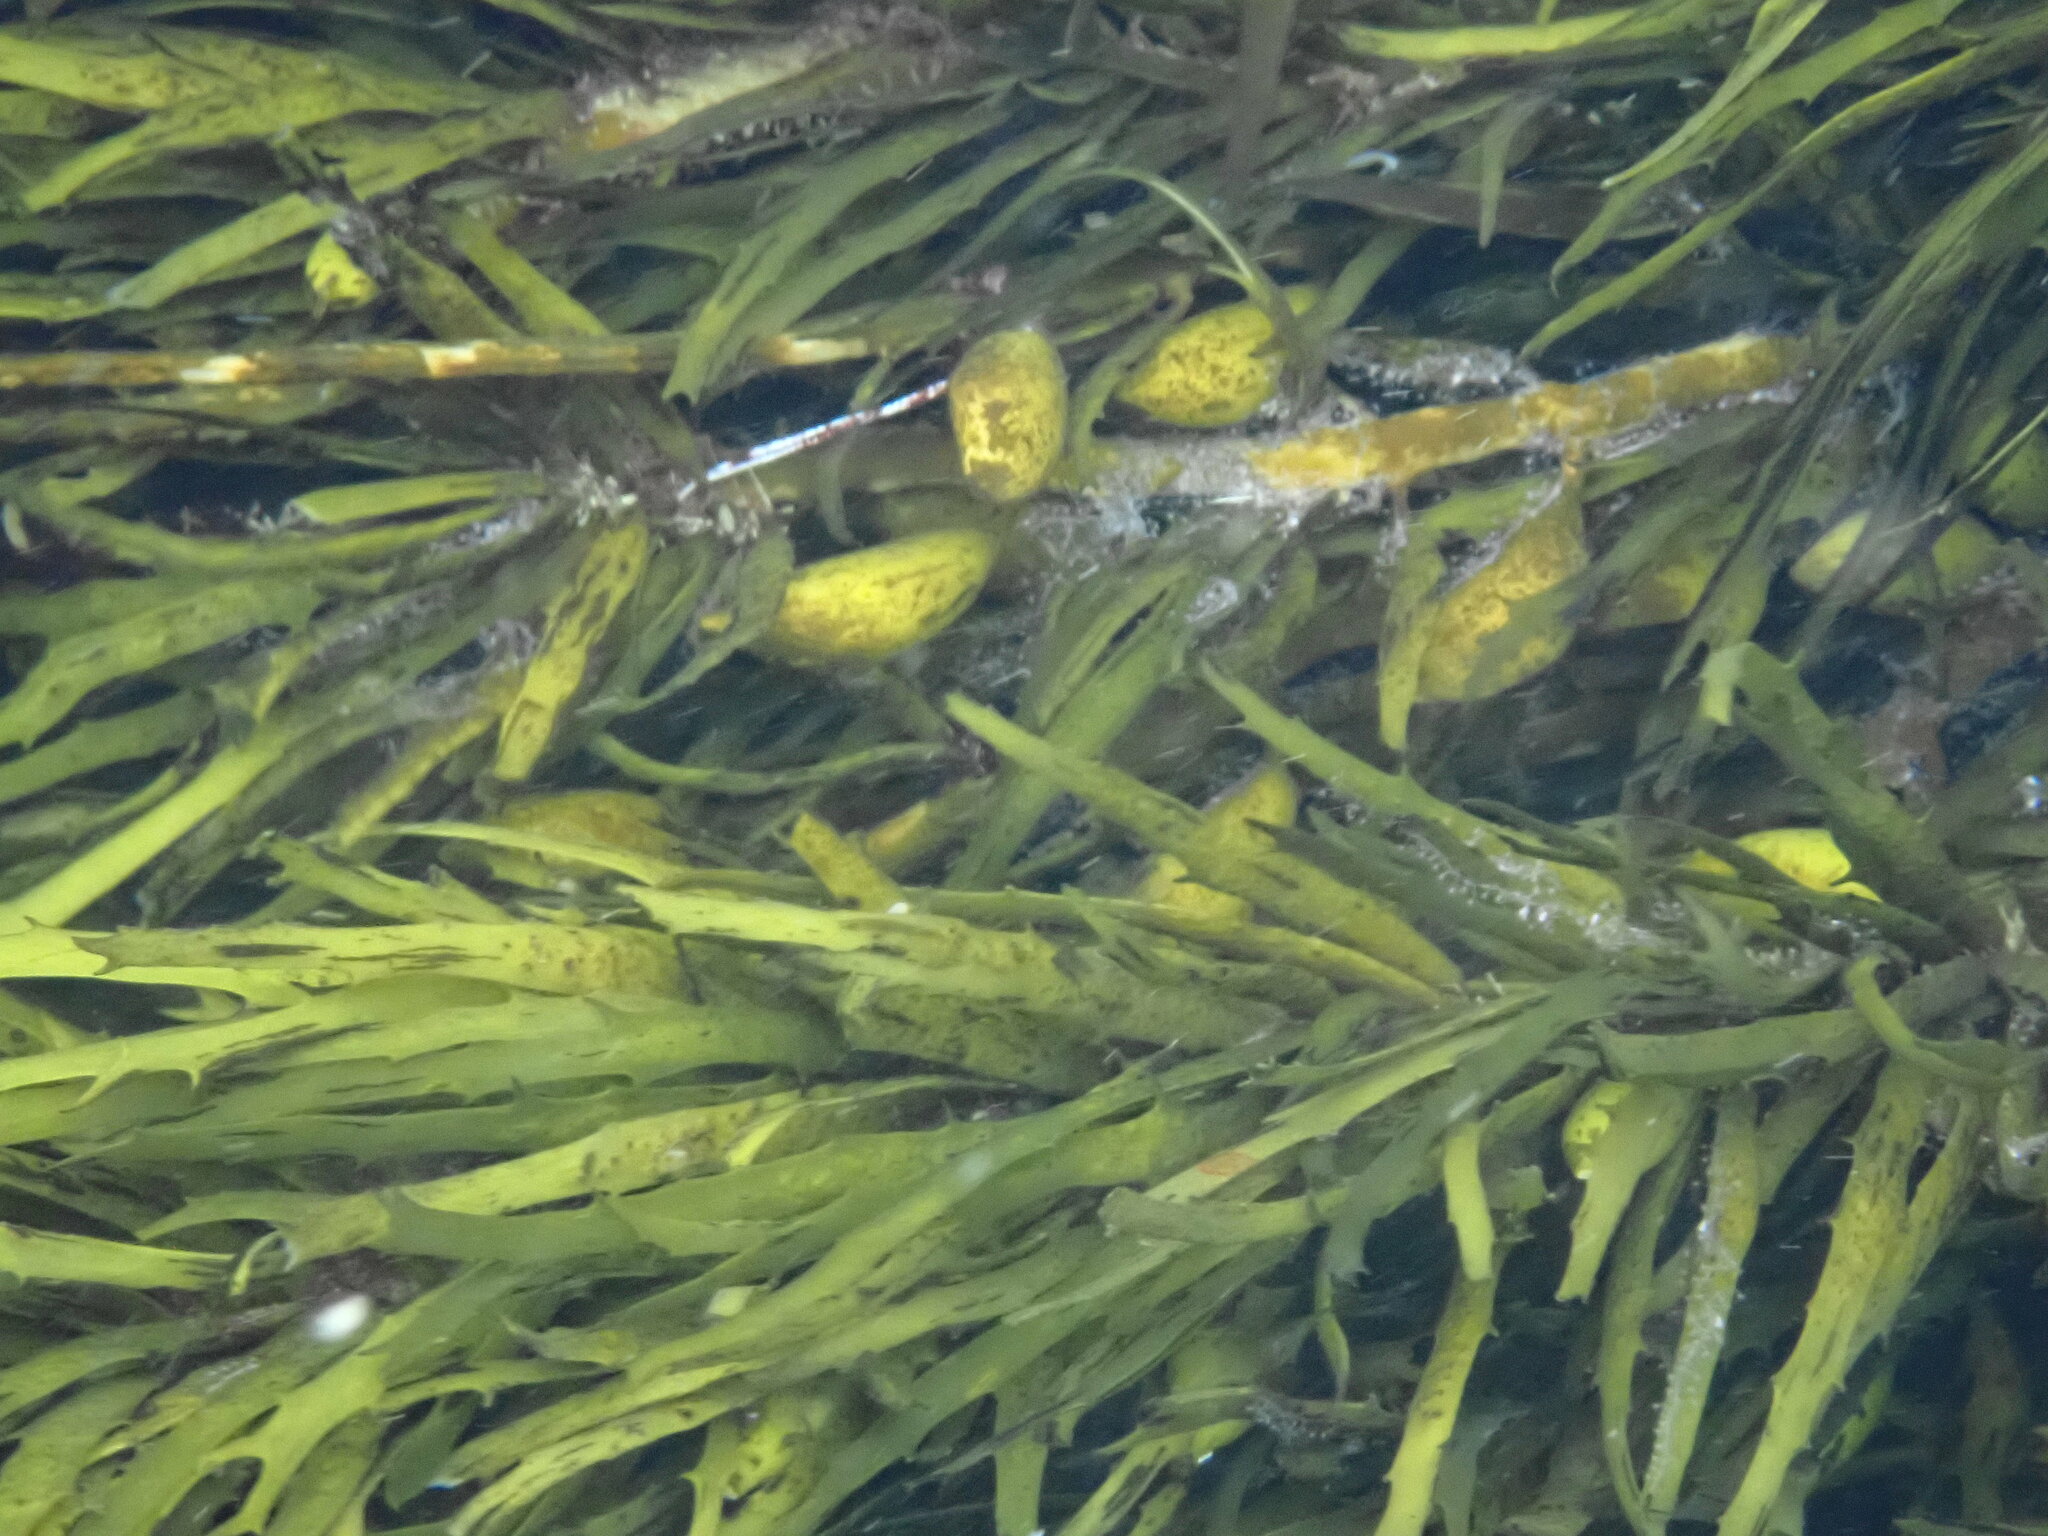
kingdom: Chromista
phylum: Ochrophyta
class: Phaeophyceae
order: Fucales
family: Seirococcaceae
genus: Phyllospora
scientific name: Phyllospora
